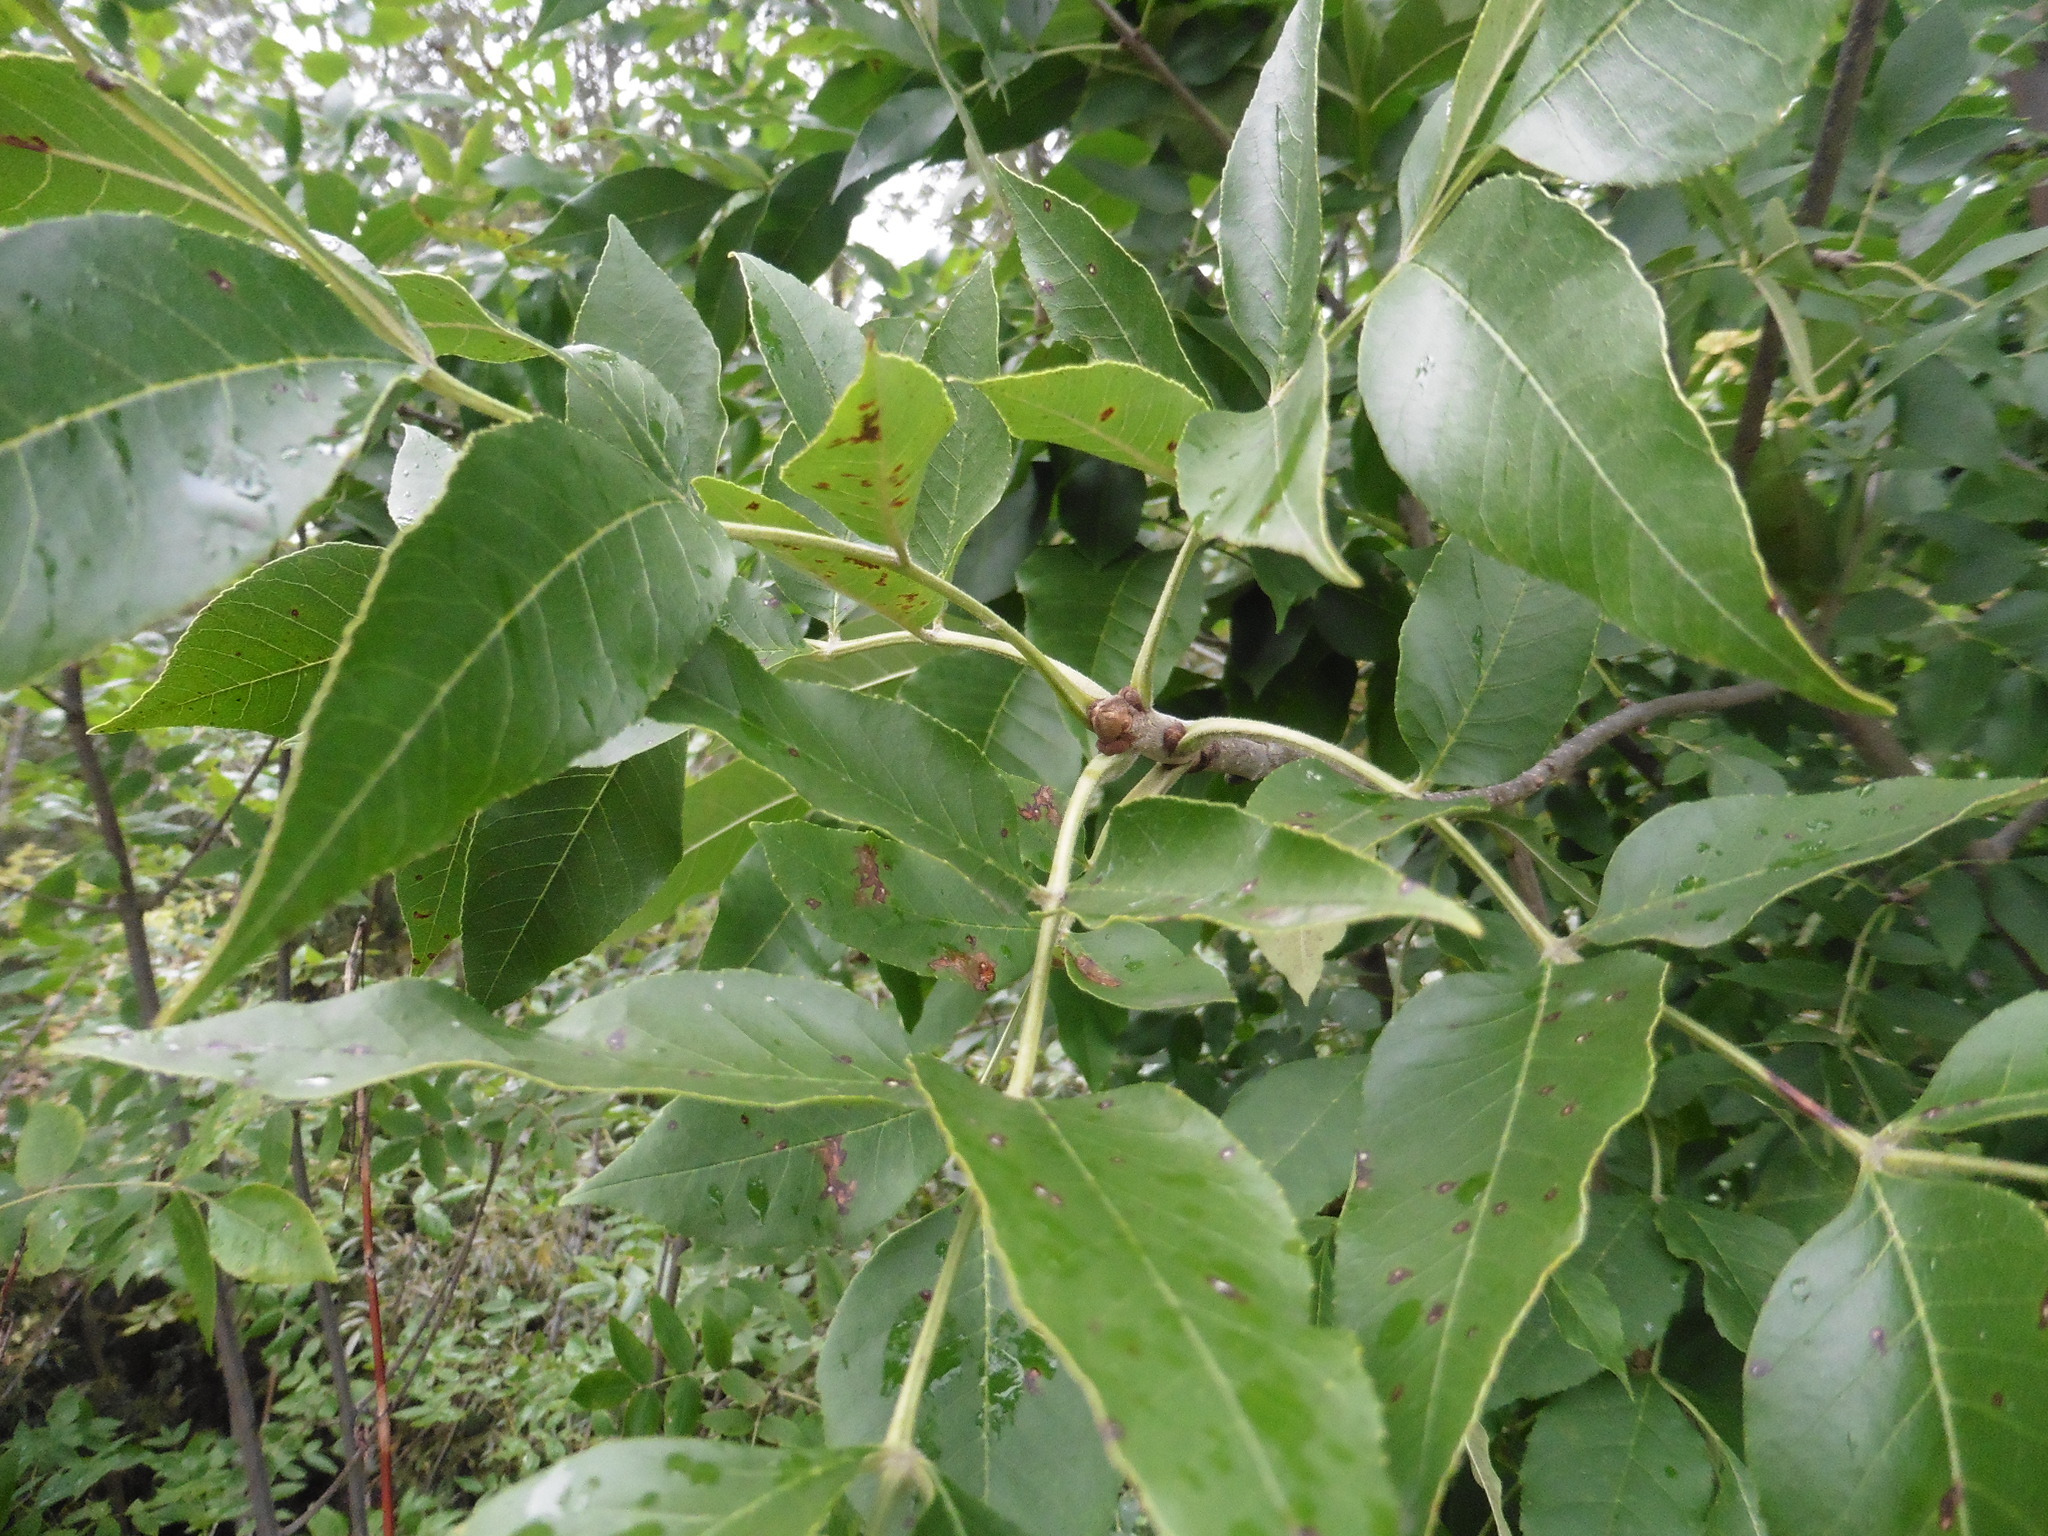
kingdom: Plantae
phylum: Tracheophyta
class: Magnoliopsida
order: Lamiales
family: Oleaceae
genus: Fraxinus
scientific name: Fraxinus pennsylvanica
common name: Green ash
